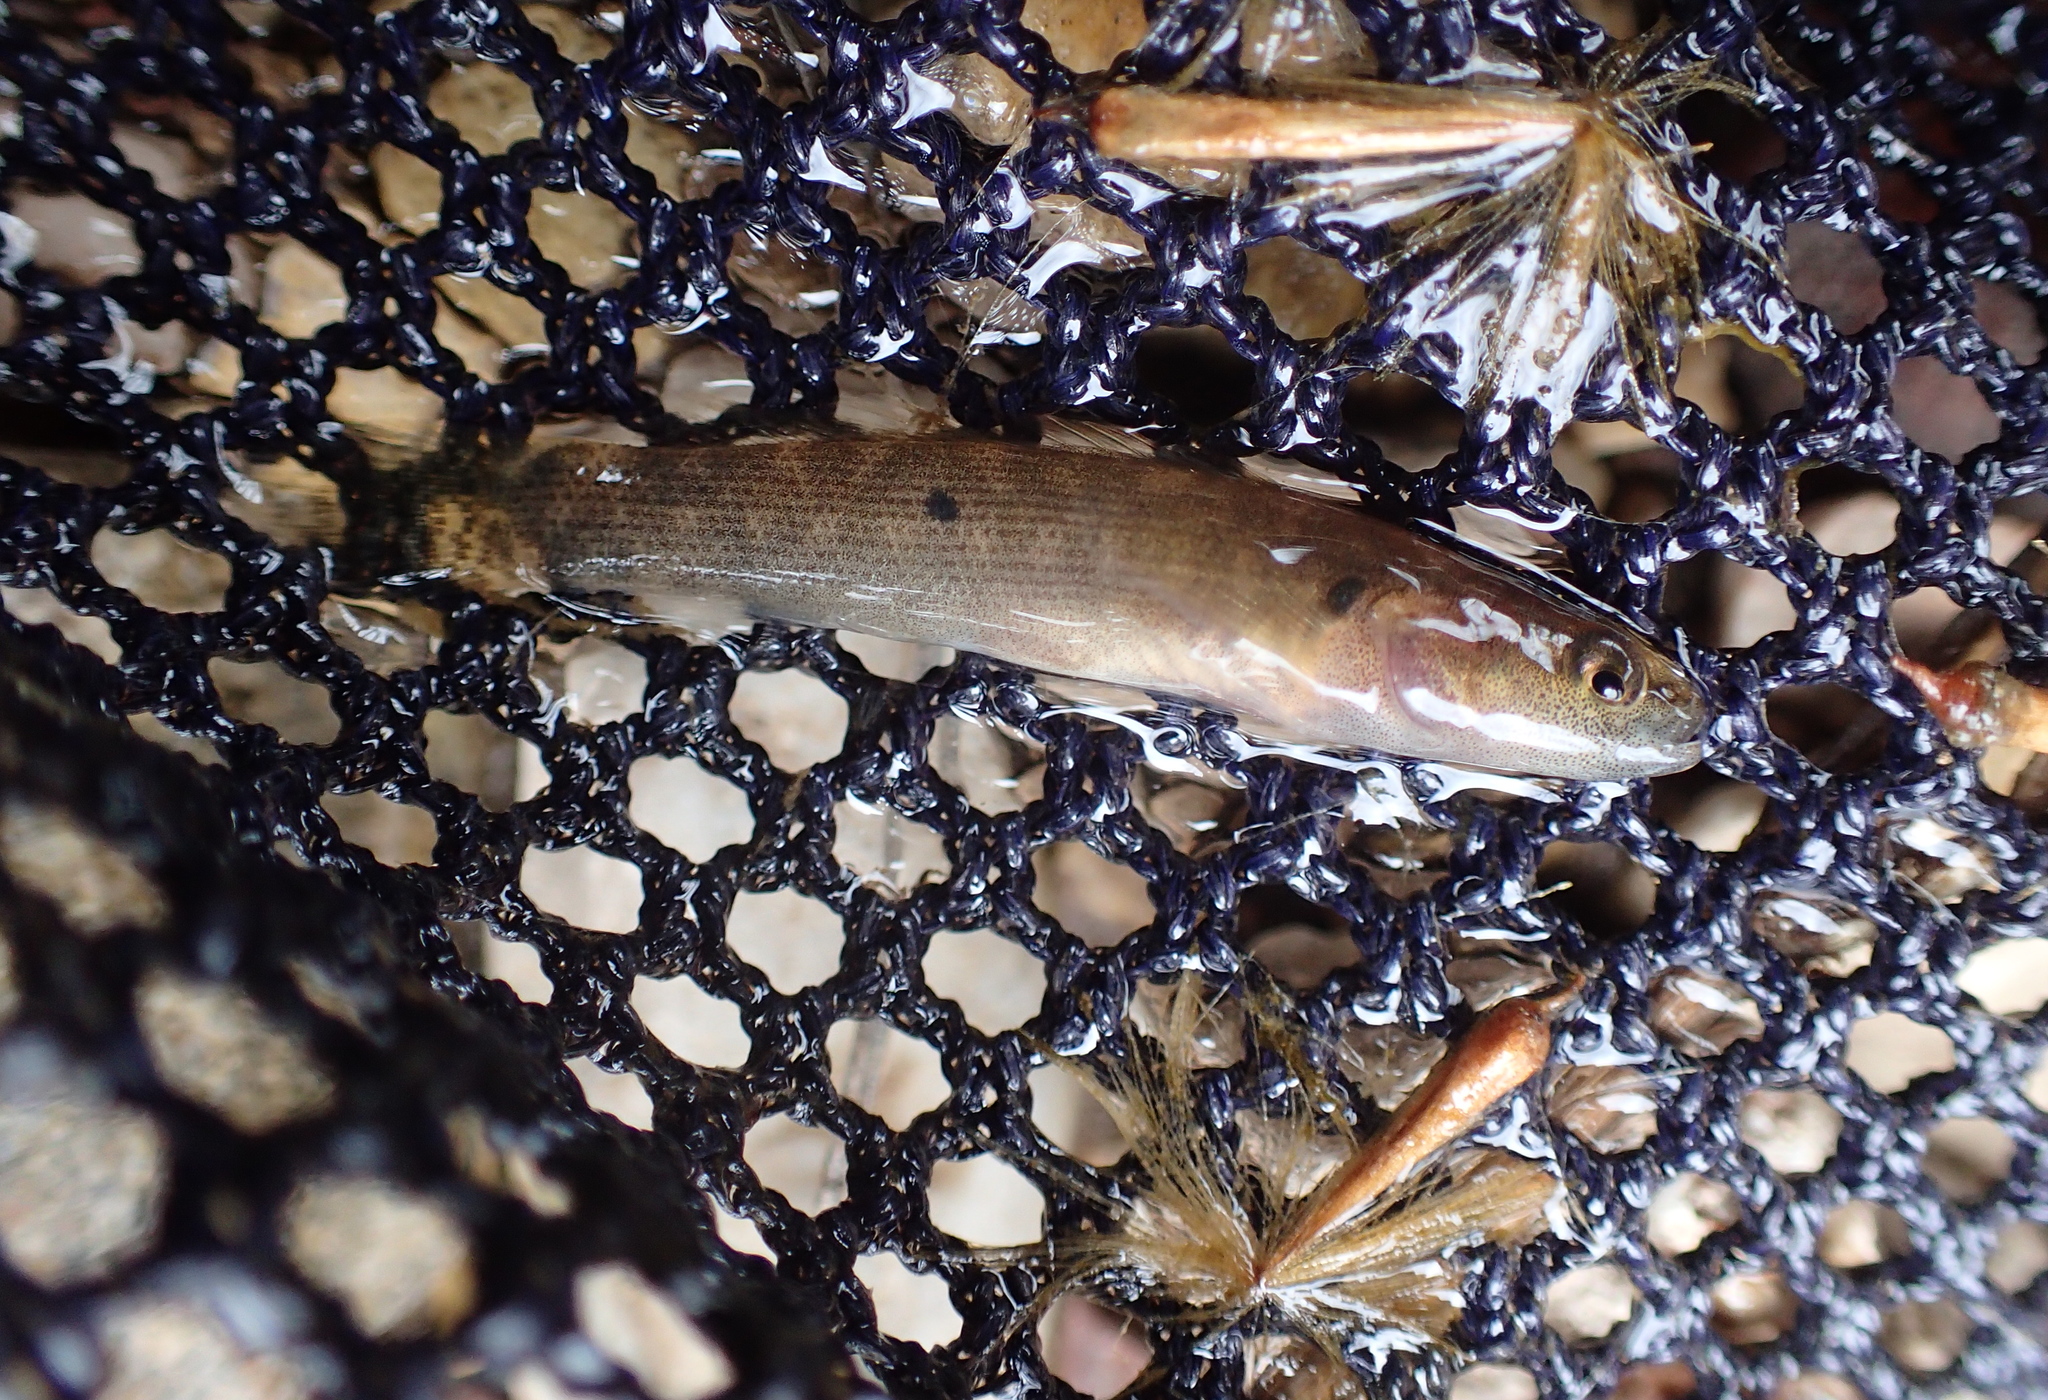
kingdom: Animalia
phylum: Chordata
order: Perciformes
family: Percidae
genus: Etheostoma
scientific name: Etheostoma flabellare
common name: Fantail darter
